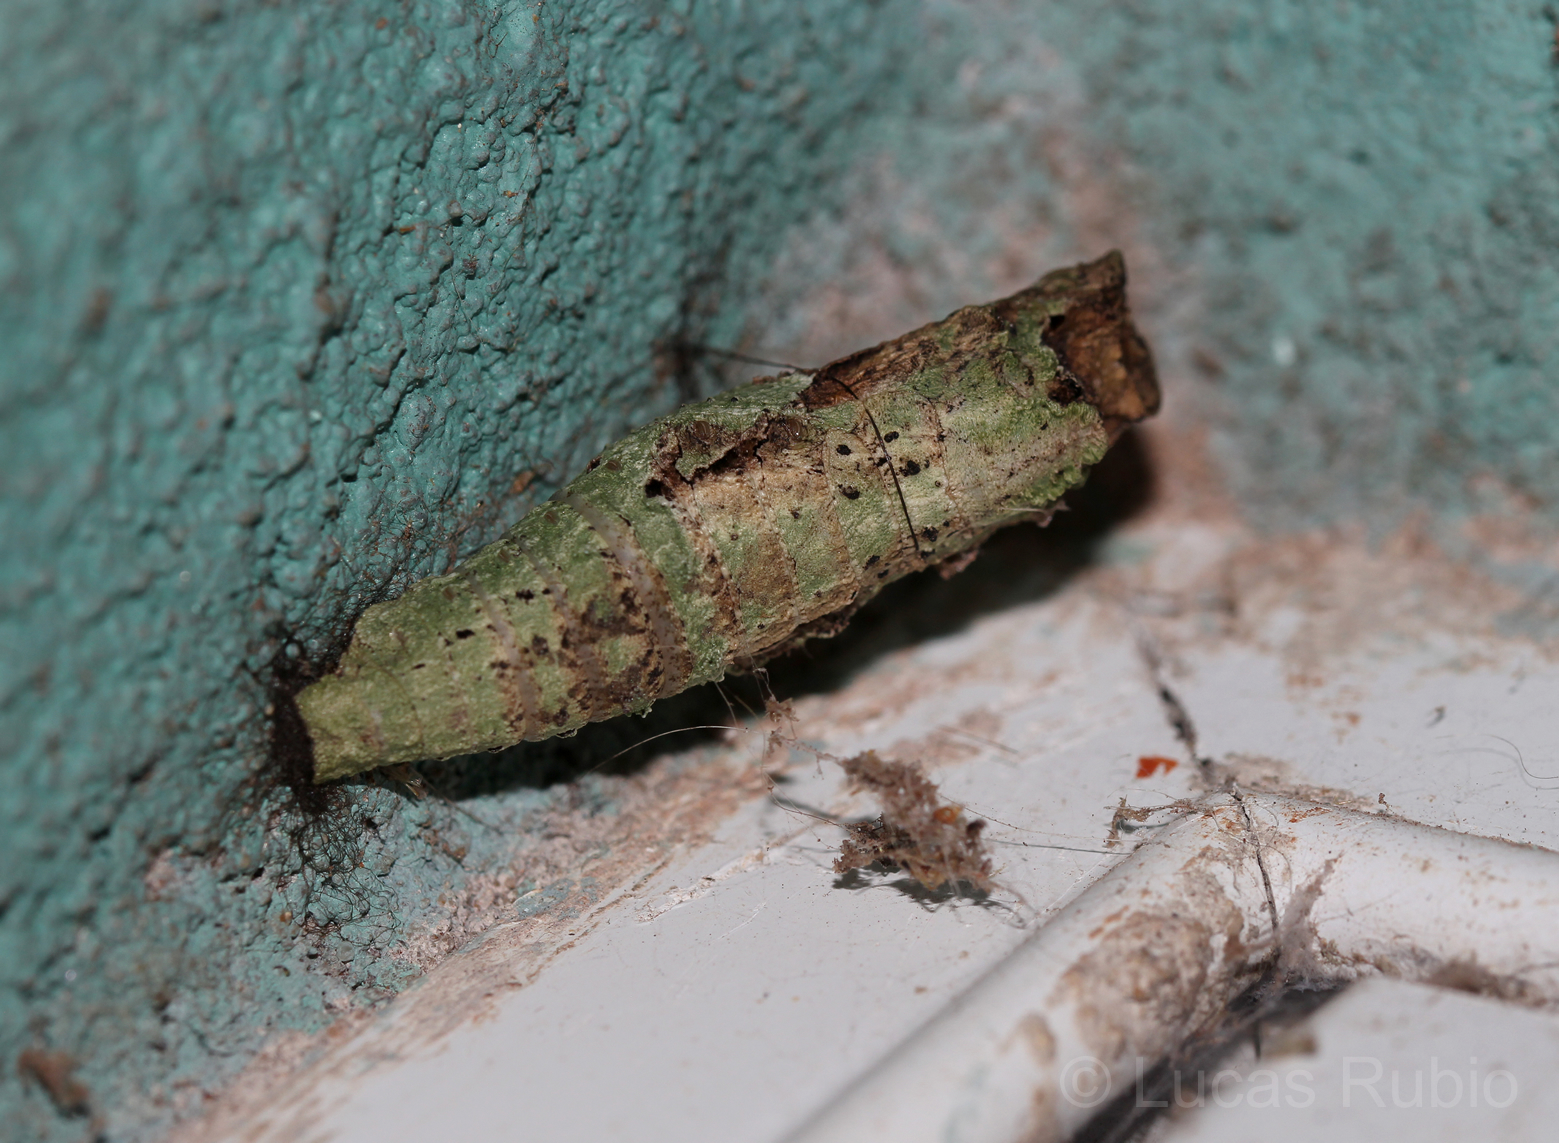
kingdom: Animalia
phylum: Arthropoda
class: Insecta
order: Lepidoptera
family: Papilionidae
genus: Papilio
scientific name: Papilio anchisiades
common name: Idaes swallowtail
